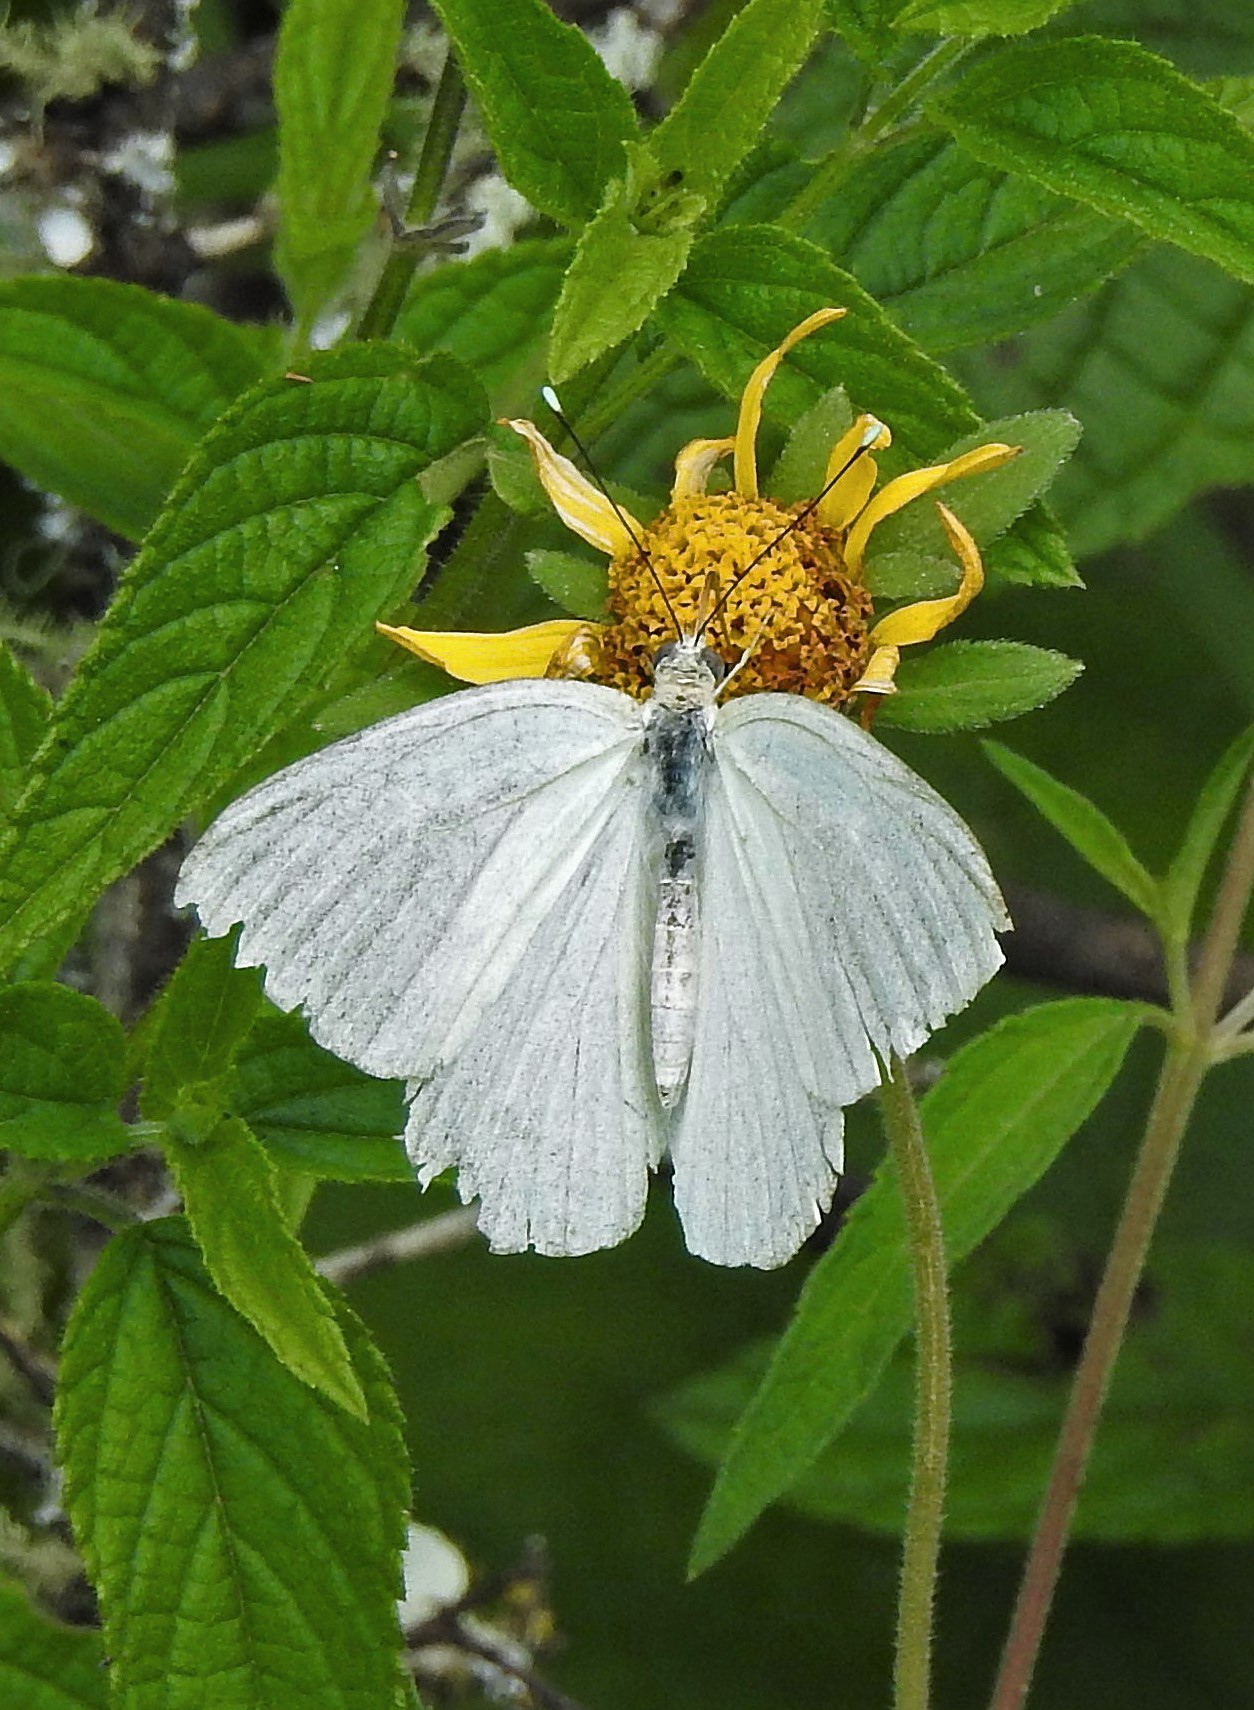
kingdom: Animalia
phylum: Arthropoda
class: Insecta
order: Lepidoptera
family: Pieridae
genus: Ascia
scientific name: Ascia monuste
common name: Great southern white
